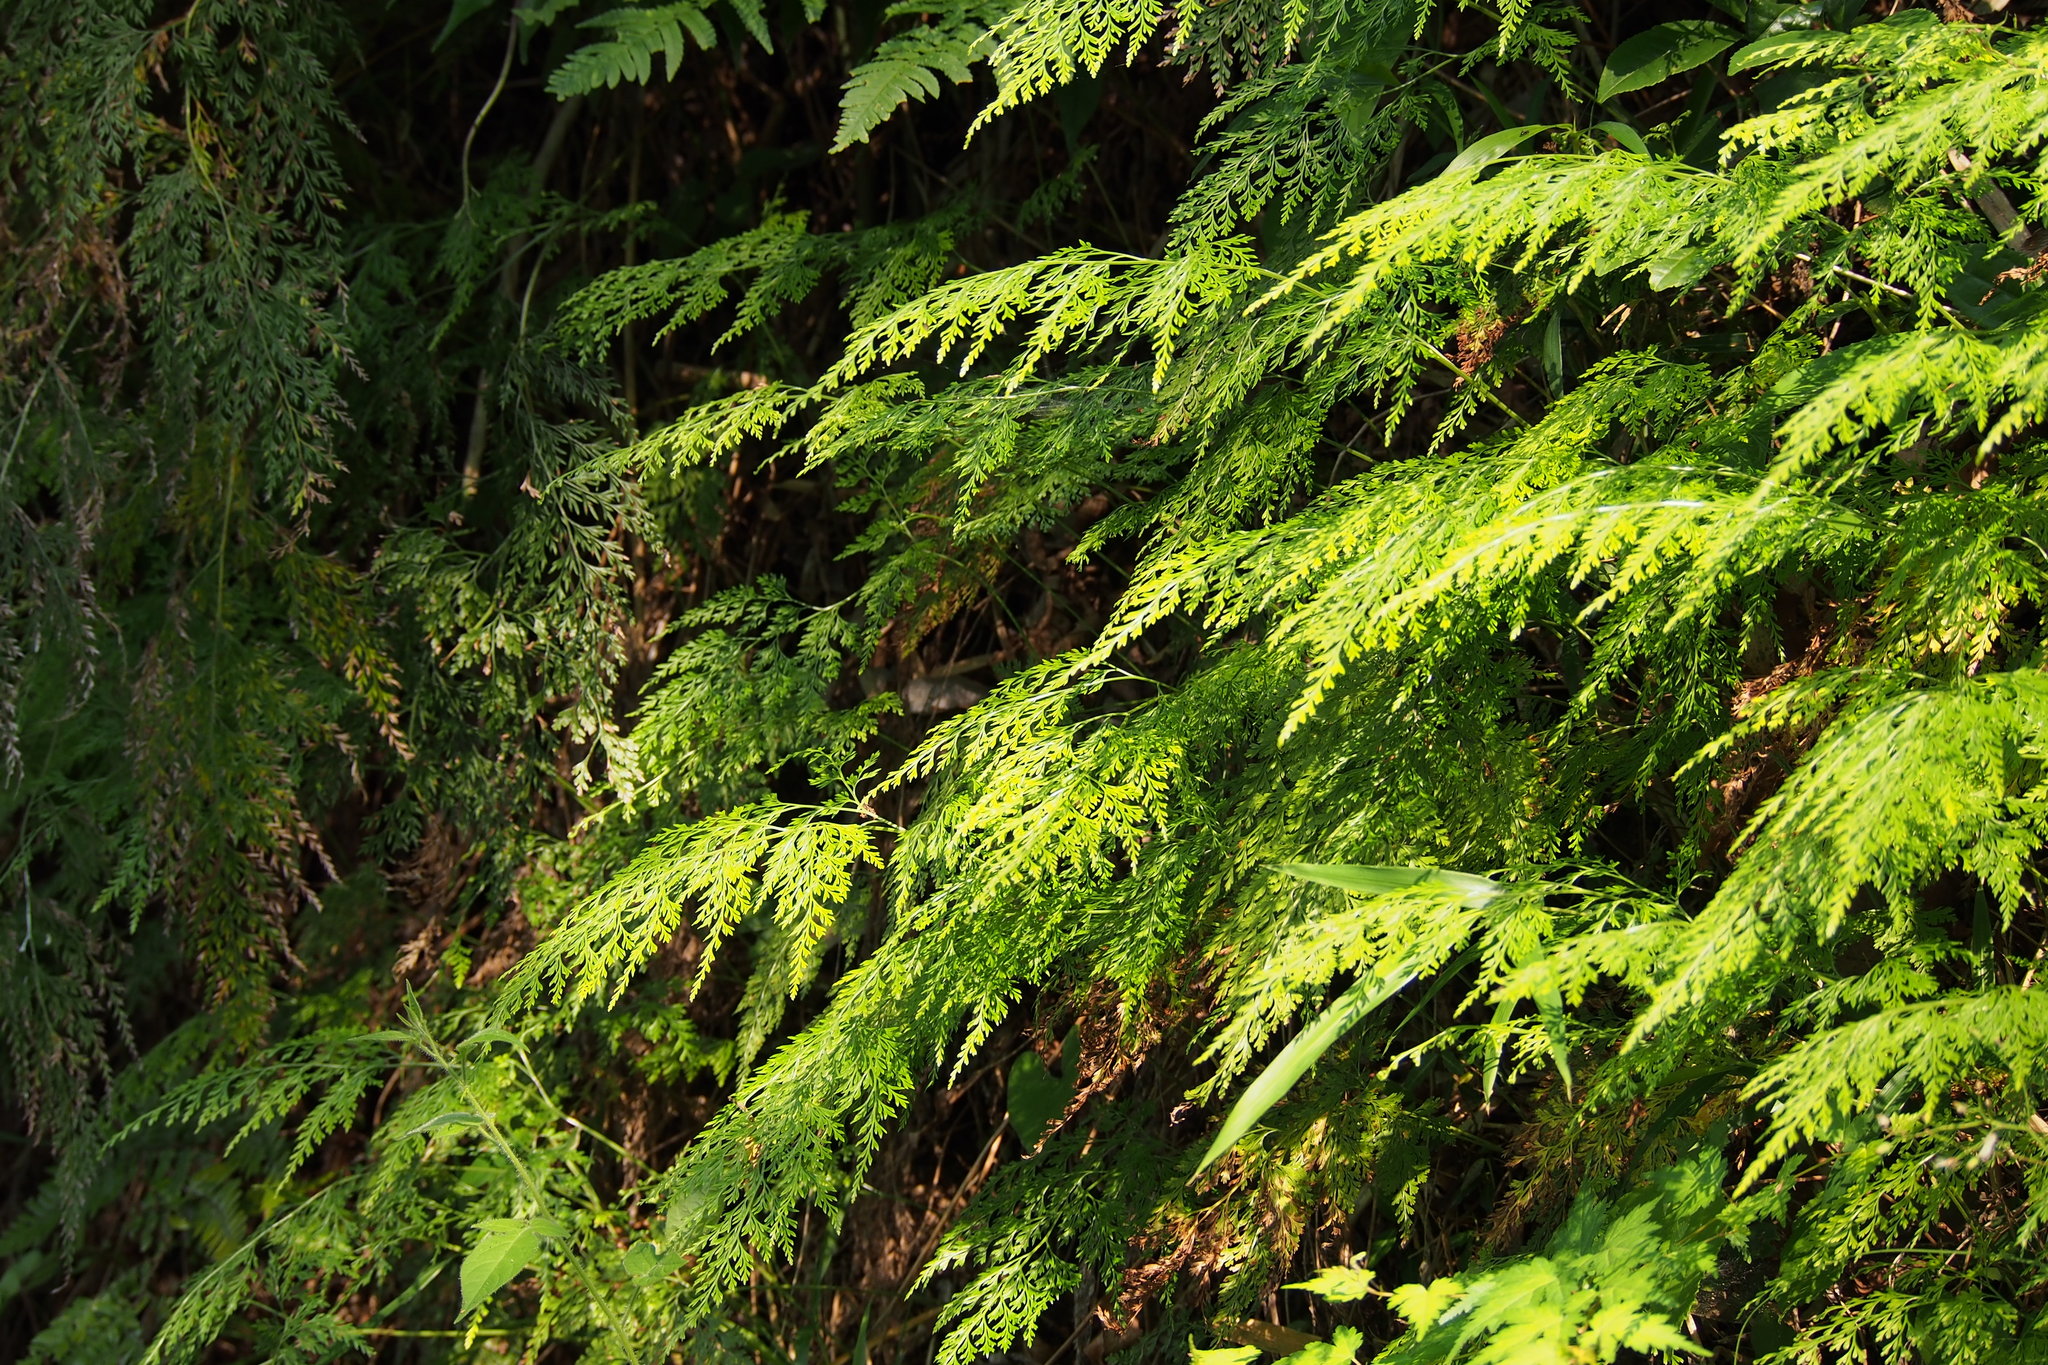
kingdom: Plantae
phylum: Tracheophyta
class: Polypodiopsida
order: Polypodiales
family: Pteridaceae
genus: Onychium
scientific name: Onychium japonicum
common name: Carrot fern
